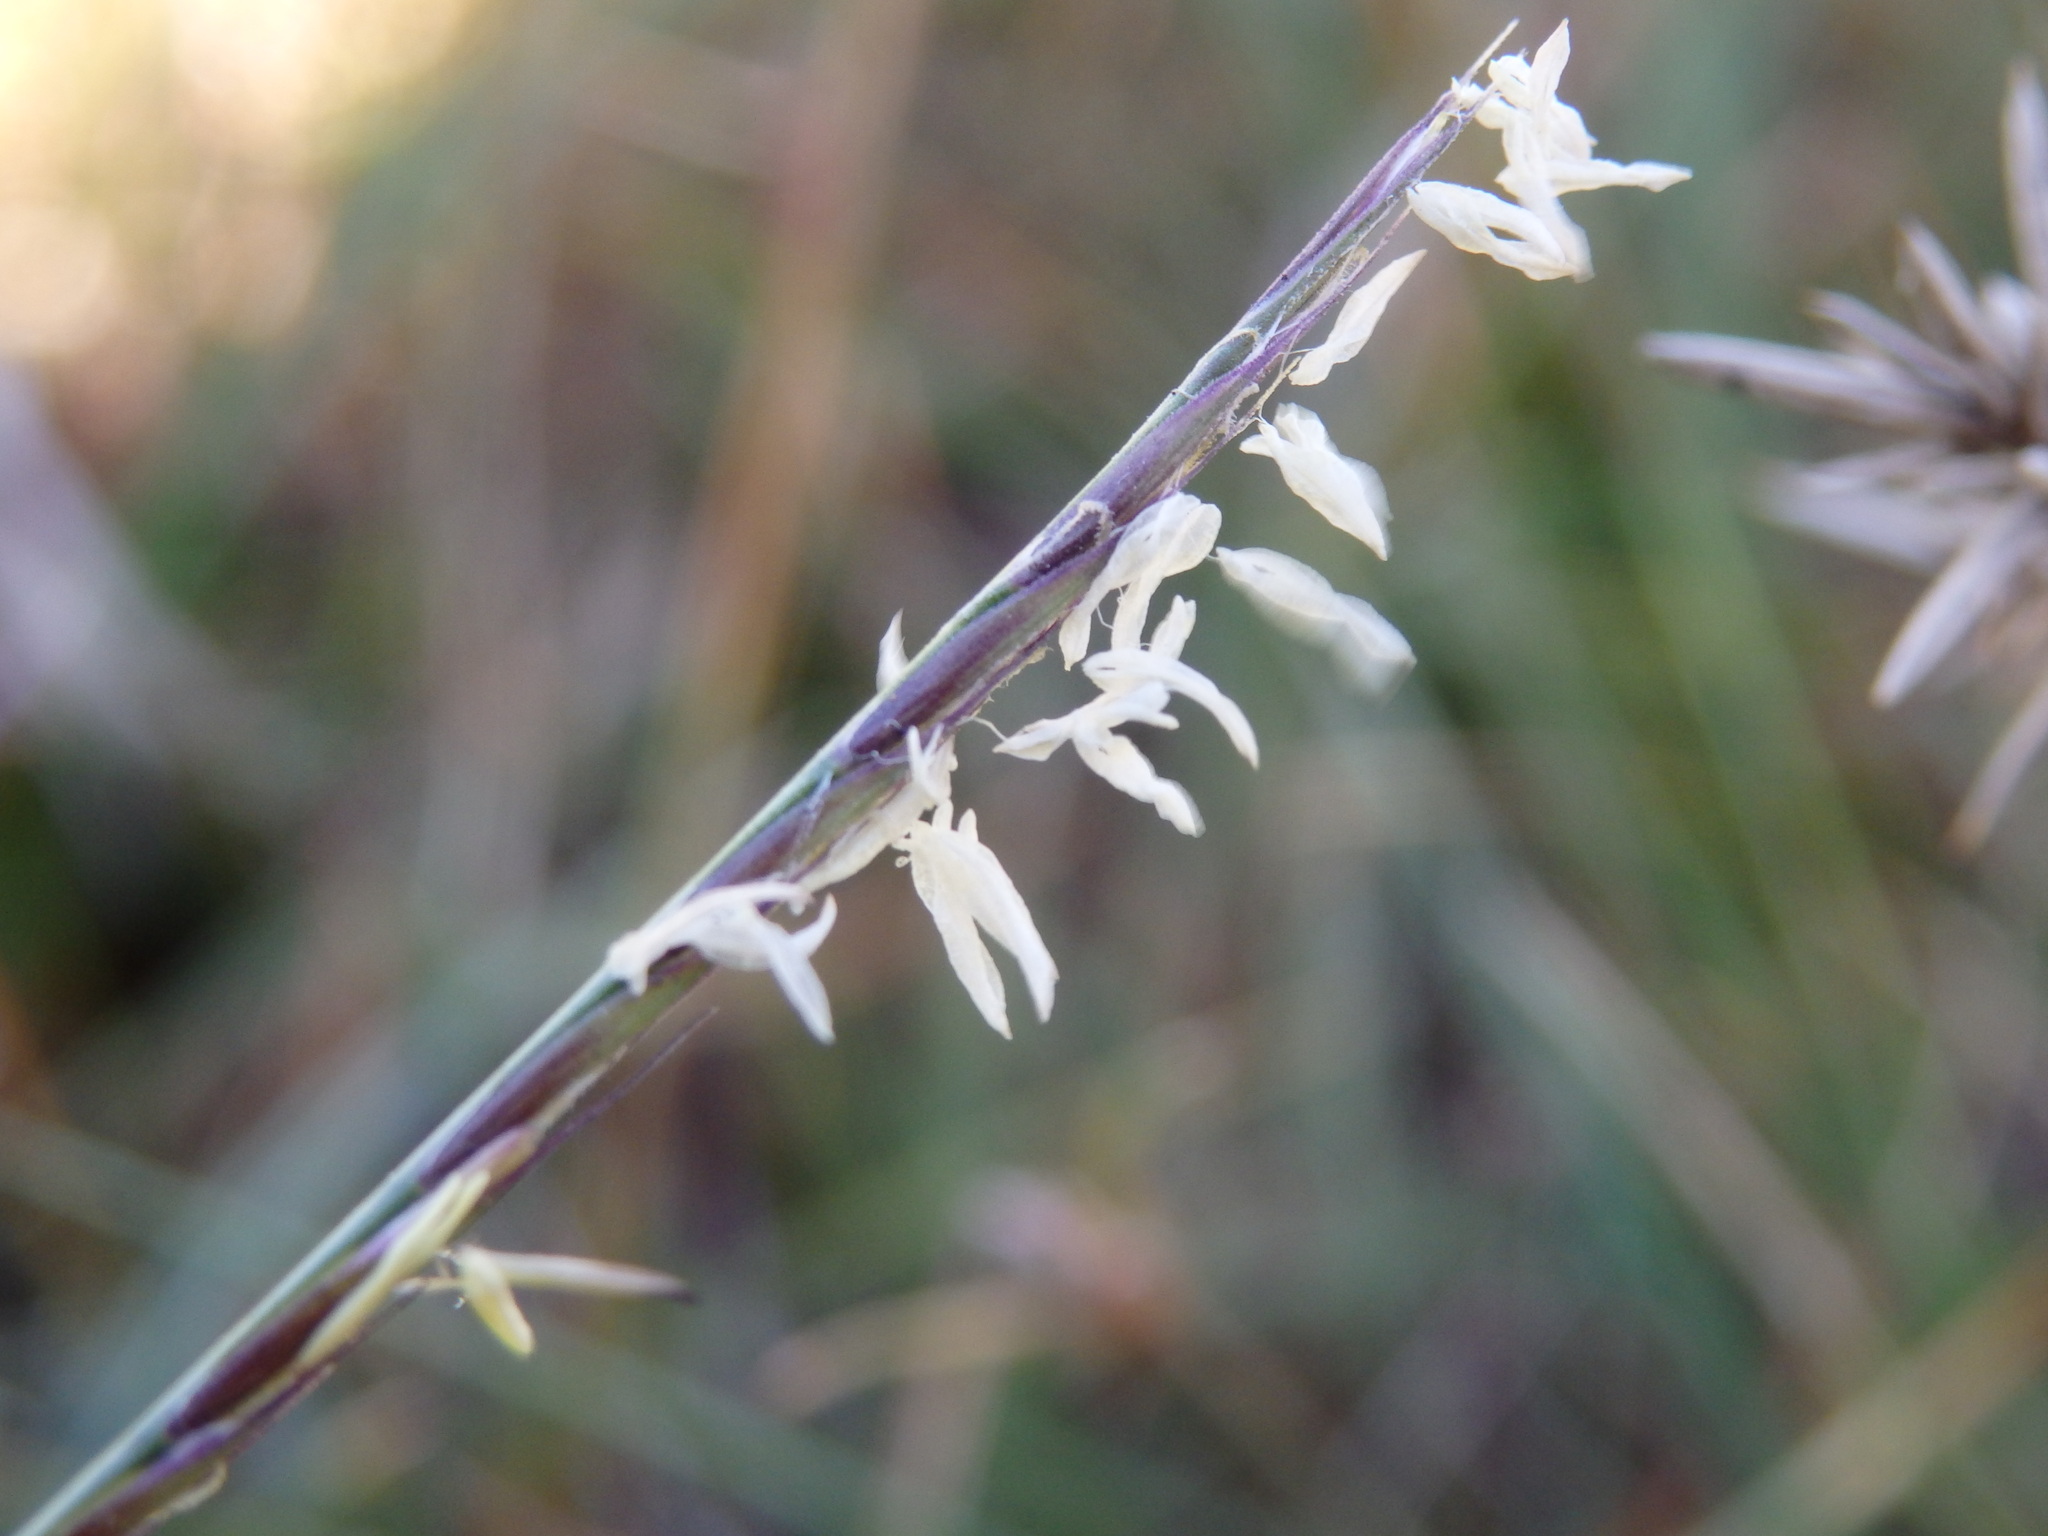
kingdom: Plantae
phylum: Tracheophyta
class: Liliopsida
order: Poales
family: Poaceae
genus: Nardus
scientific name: Nardus stricta
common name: Mat-grass
